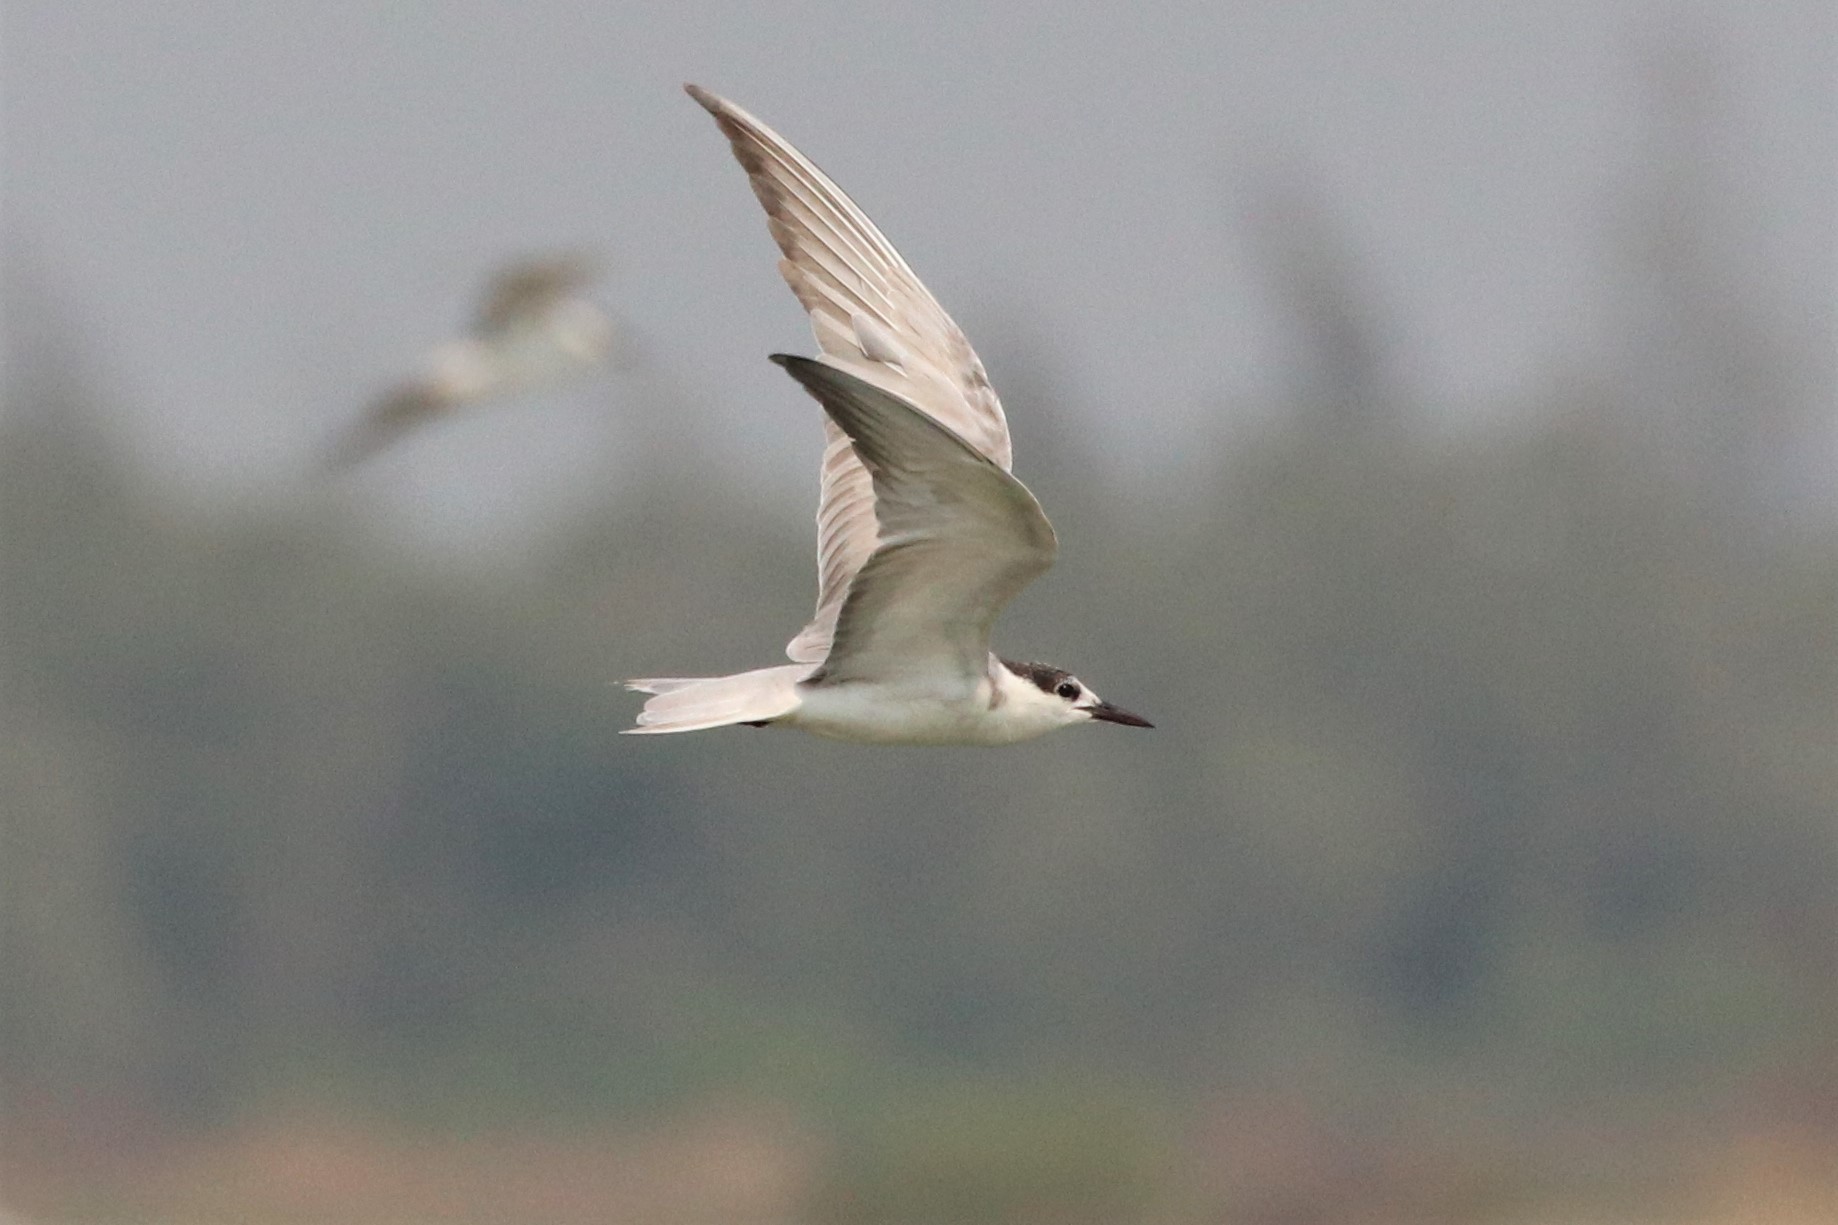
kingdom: Animalia
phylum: Chordata
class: Aves
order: Charadriiformes
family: Laridae
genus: Chlidonias
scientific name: Chlidonias hybrida
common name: Whiskered tern
